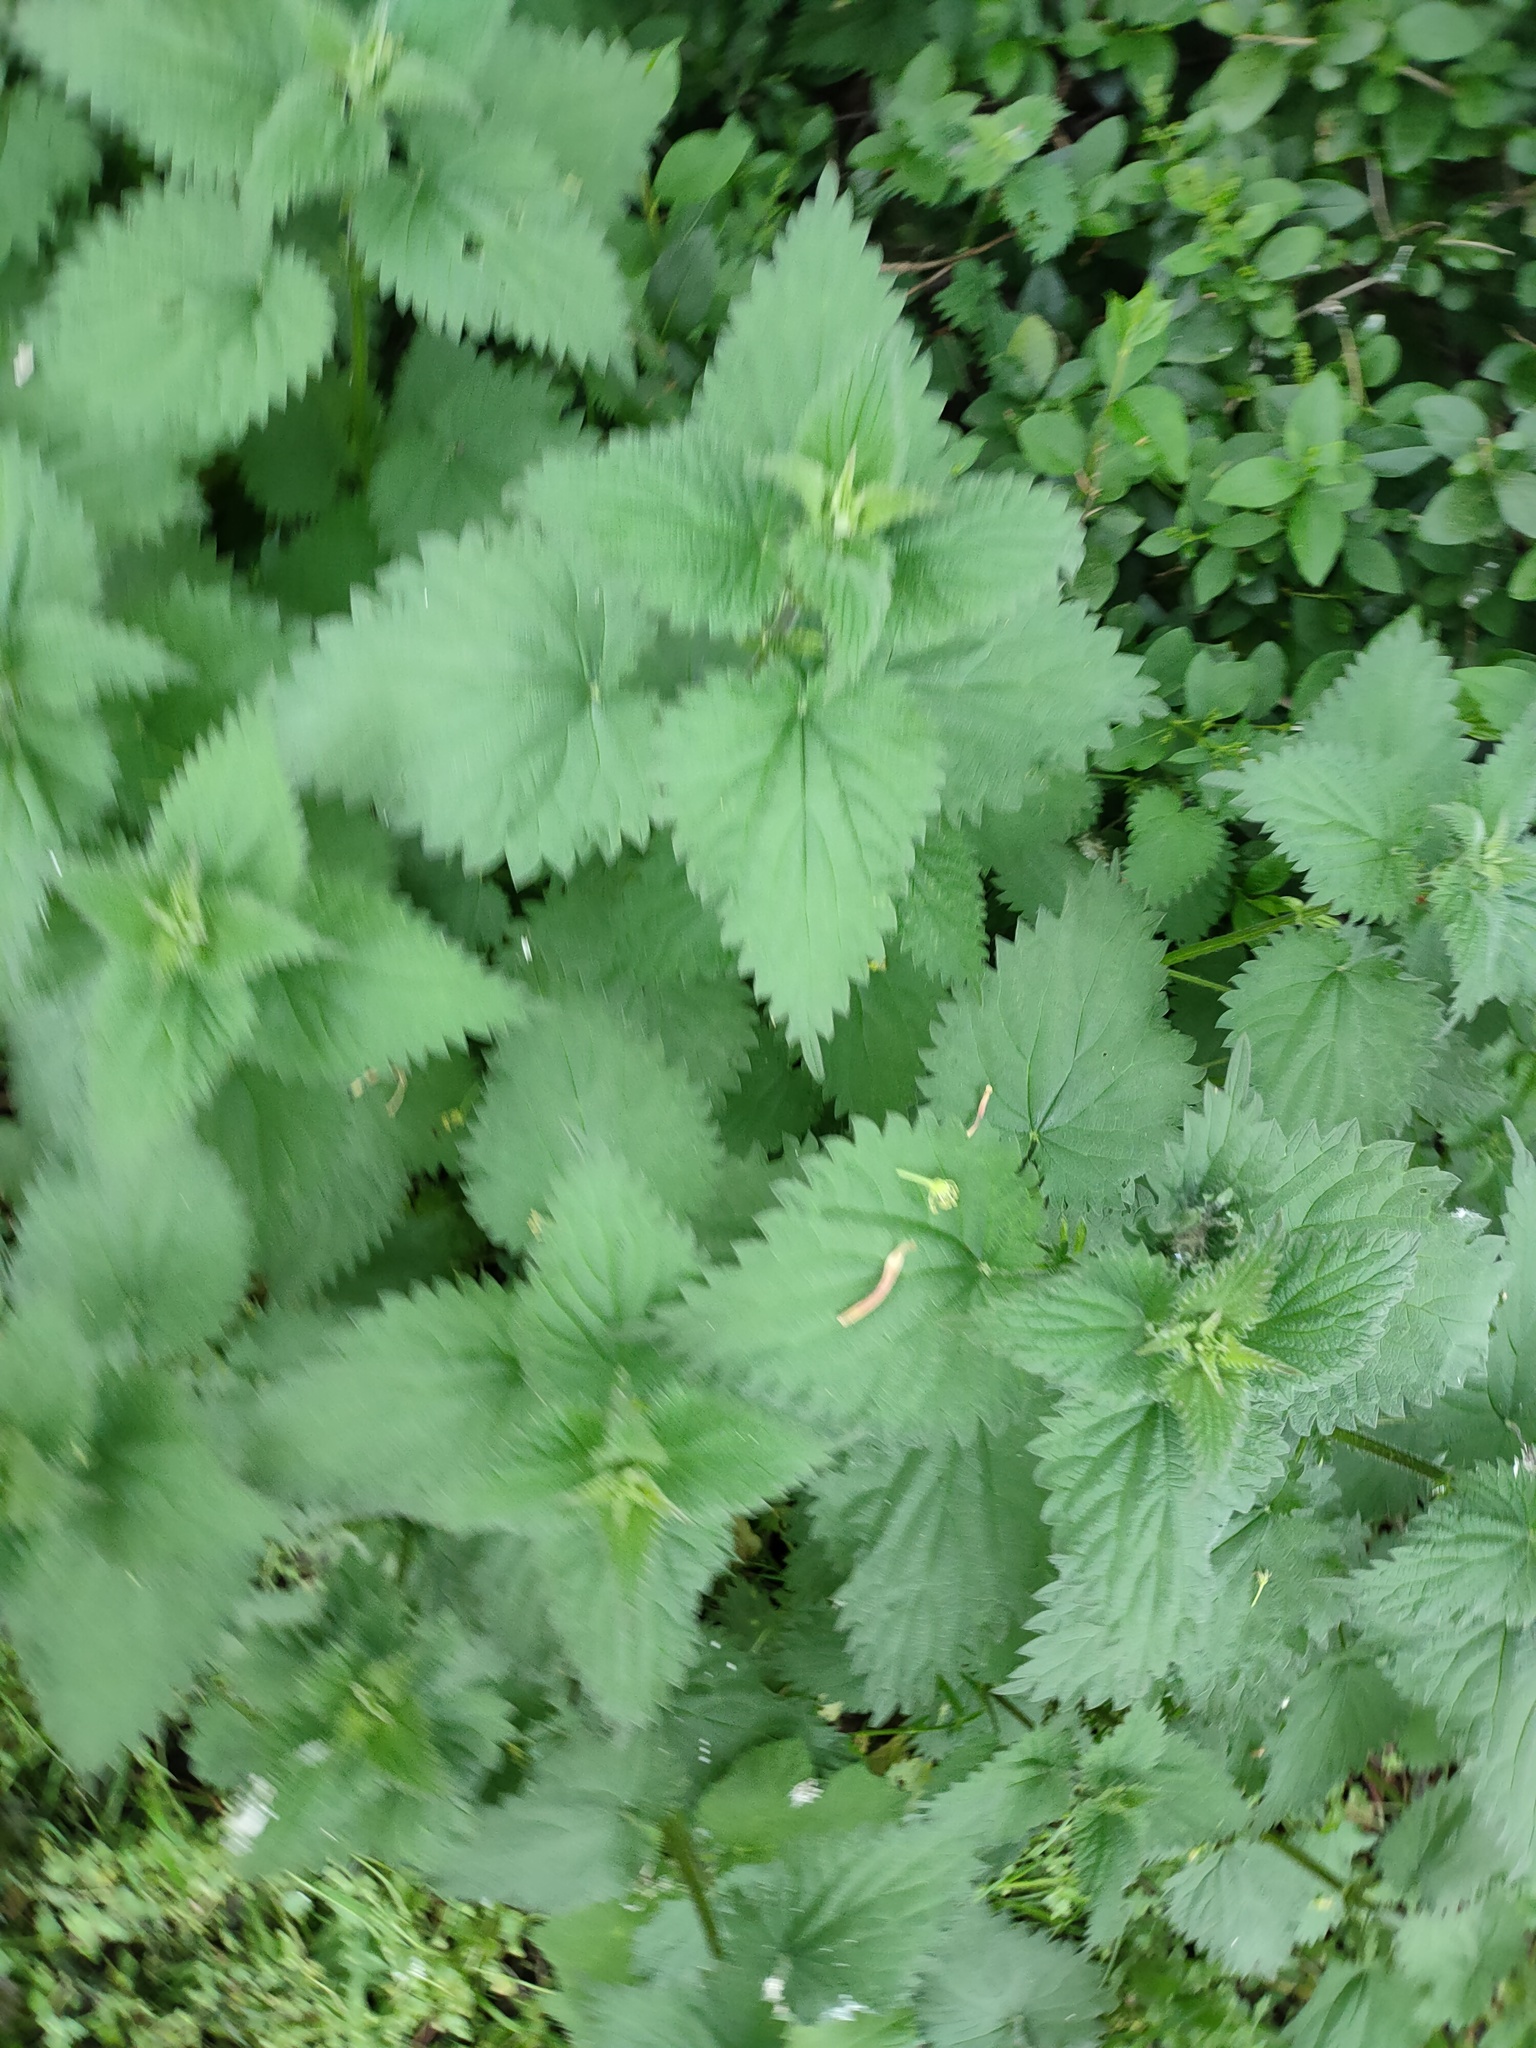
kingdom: Plantae
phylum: Tracheophyta
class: Magnoliopsida
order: Rosales
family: Urticaceae
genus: Urtica
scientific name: Urtica dioica
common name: Common nettle
